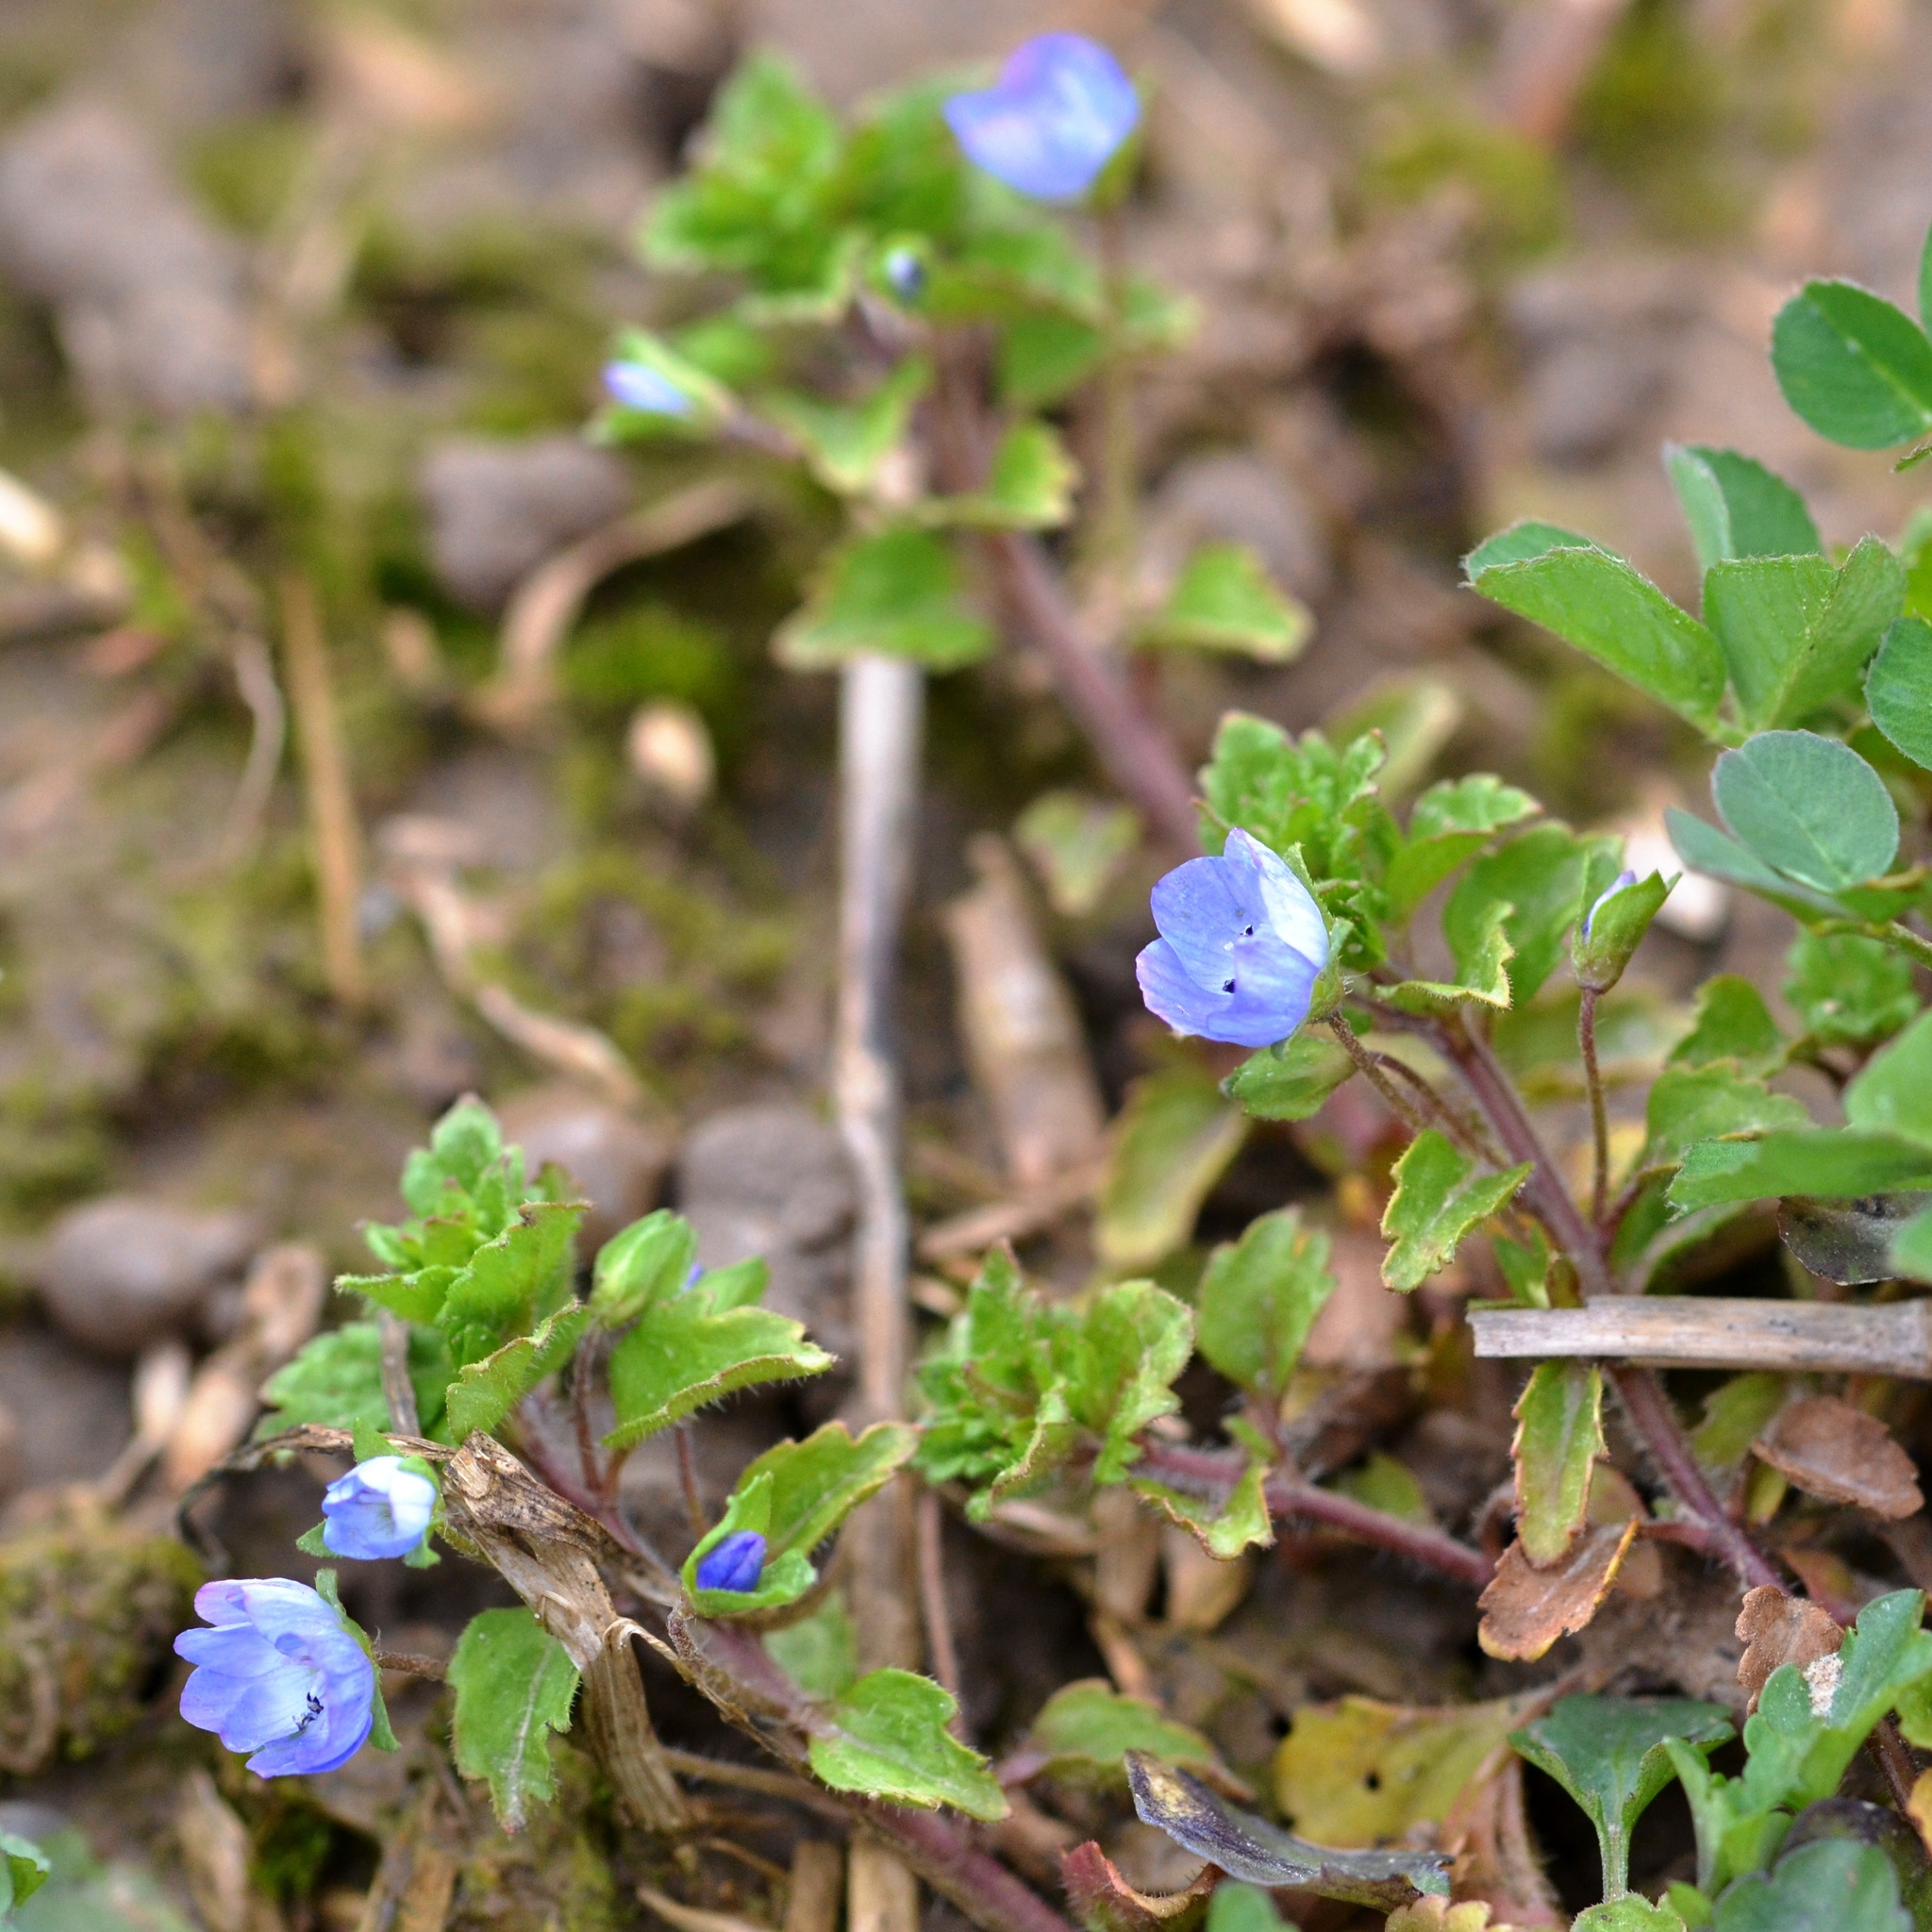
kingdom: Plantae
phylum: Tracheophyta
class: Magnoliopsida
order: Lamiales
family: Plantaginaceae
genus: Veronica
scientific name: Veronica persica
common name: Common field-speedwell
